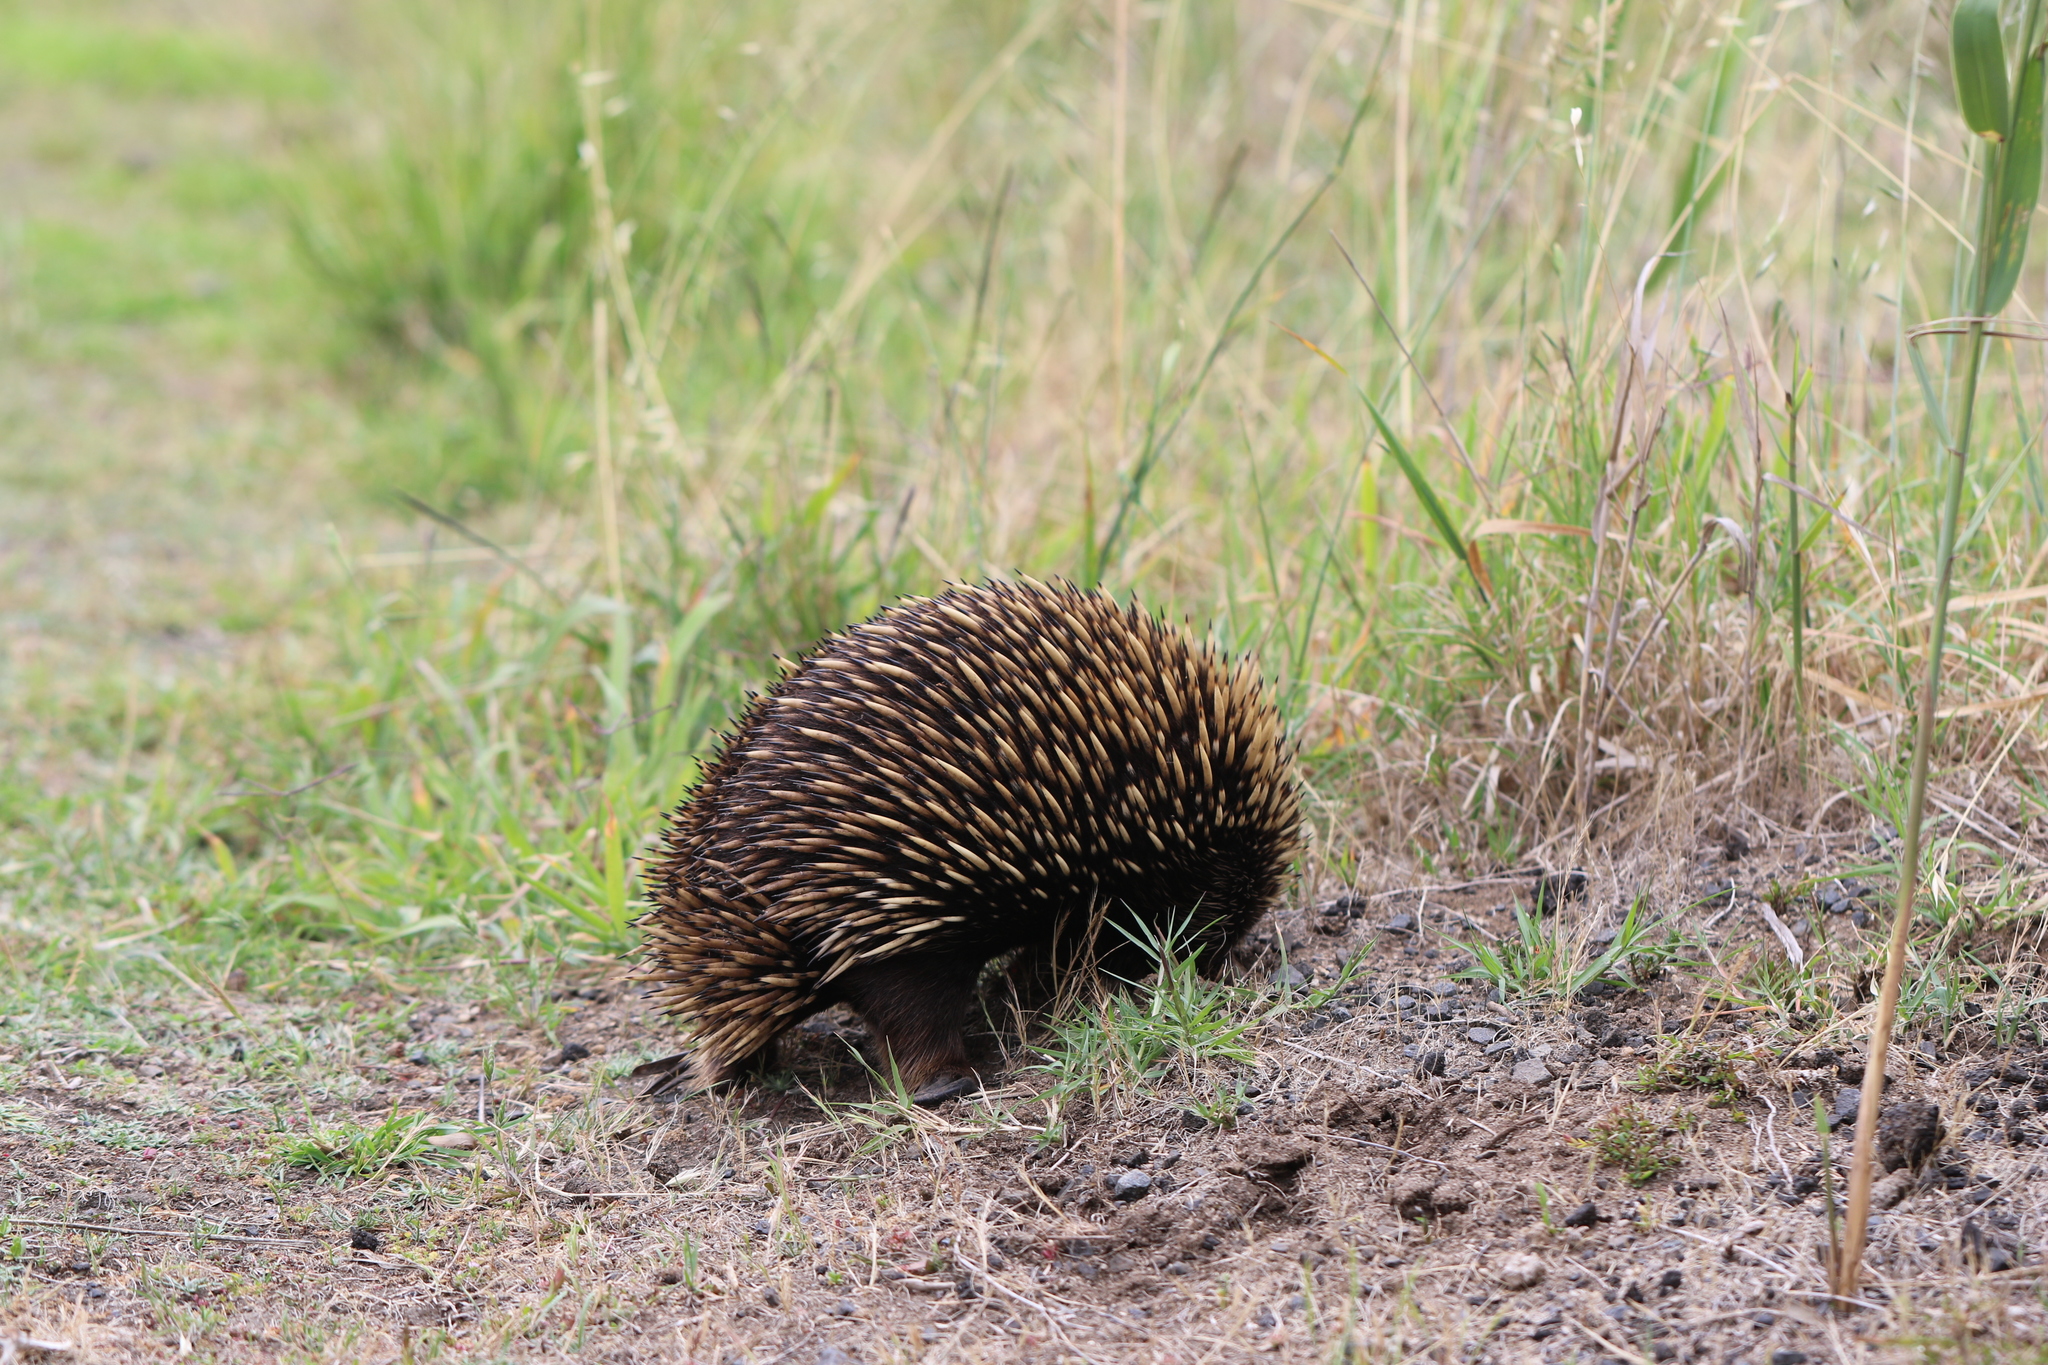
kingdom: Animalia
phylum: Chordata
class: Mammalia
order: Monotremata
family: Tachyglossidae
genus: Tachyglossus
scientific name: Tachyglossus aculeatus
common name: Short-beaked echidna
